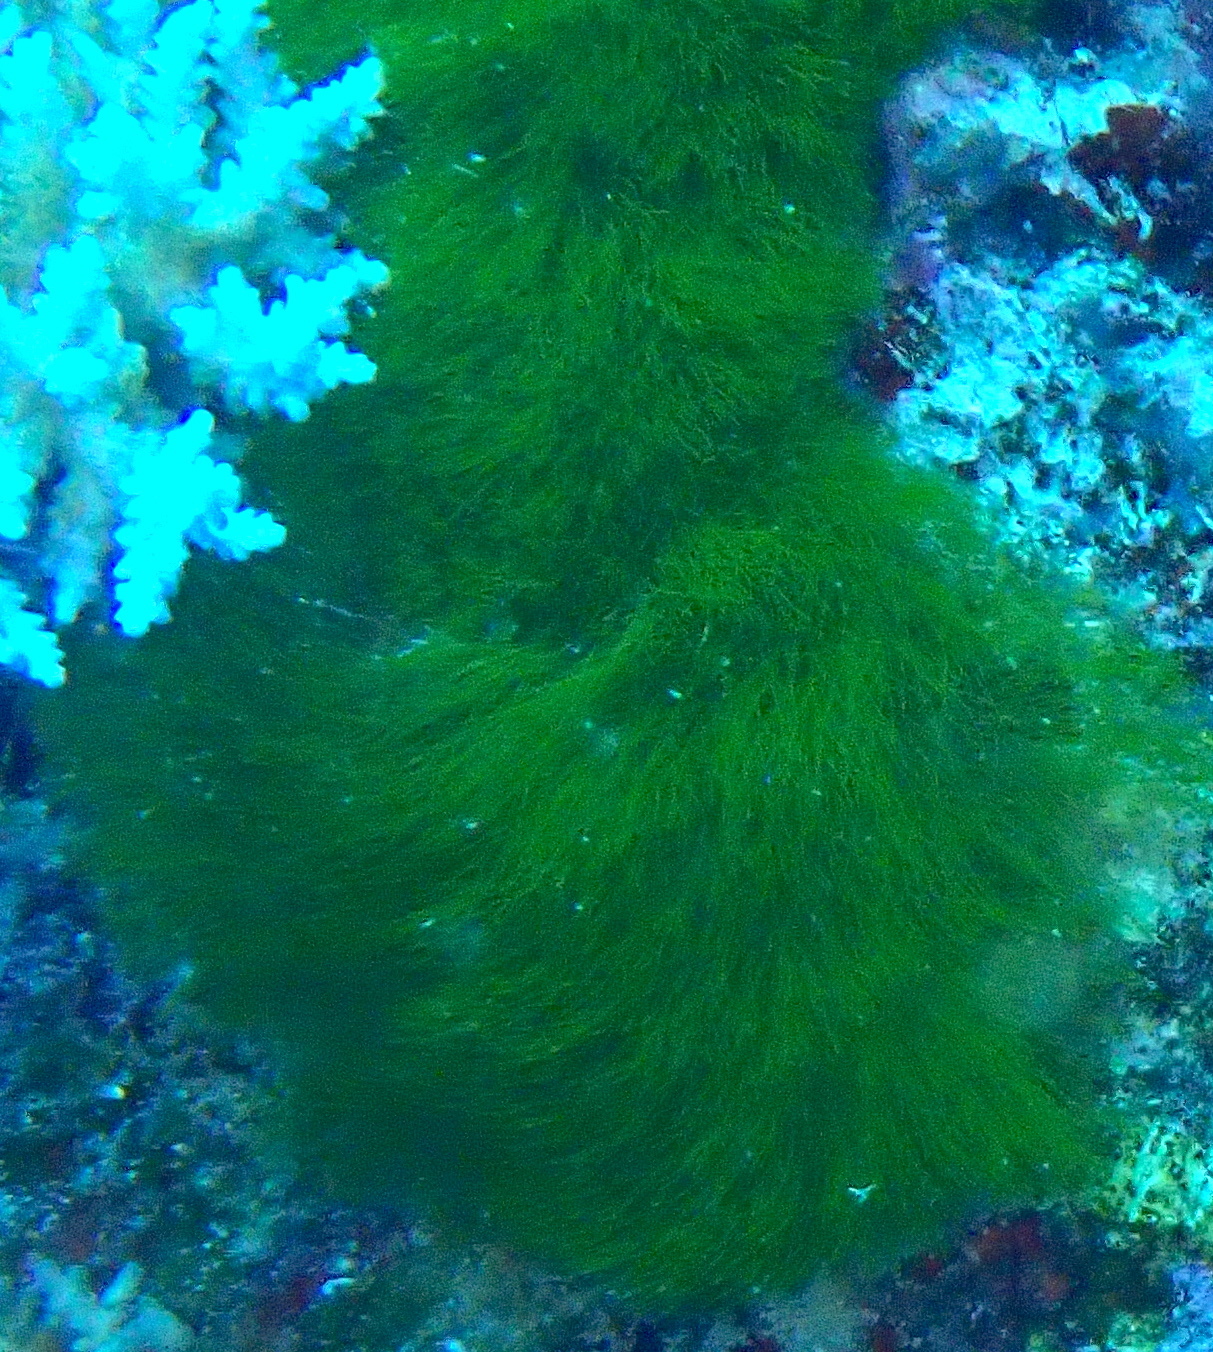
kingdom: Plantae
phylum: Chlorophyta
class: Ulvophyceae
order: Bryopsidales
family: Udoteaceae
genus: Chlorodesmis
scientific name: Chlorodesmis fastigiata
